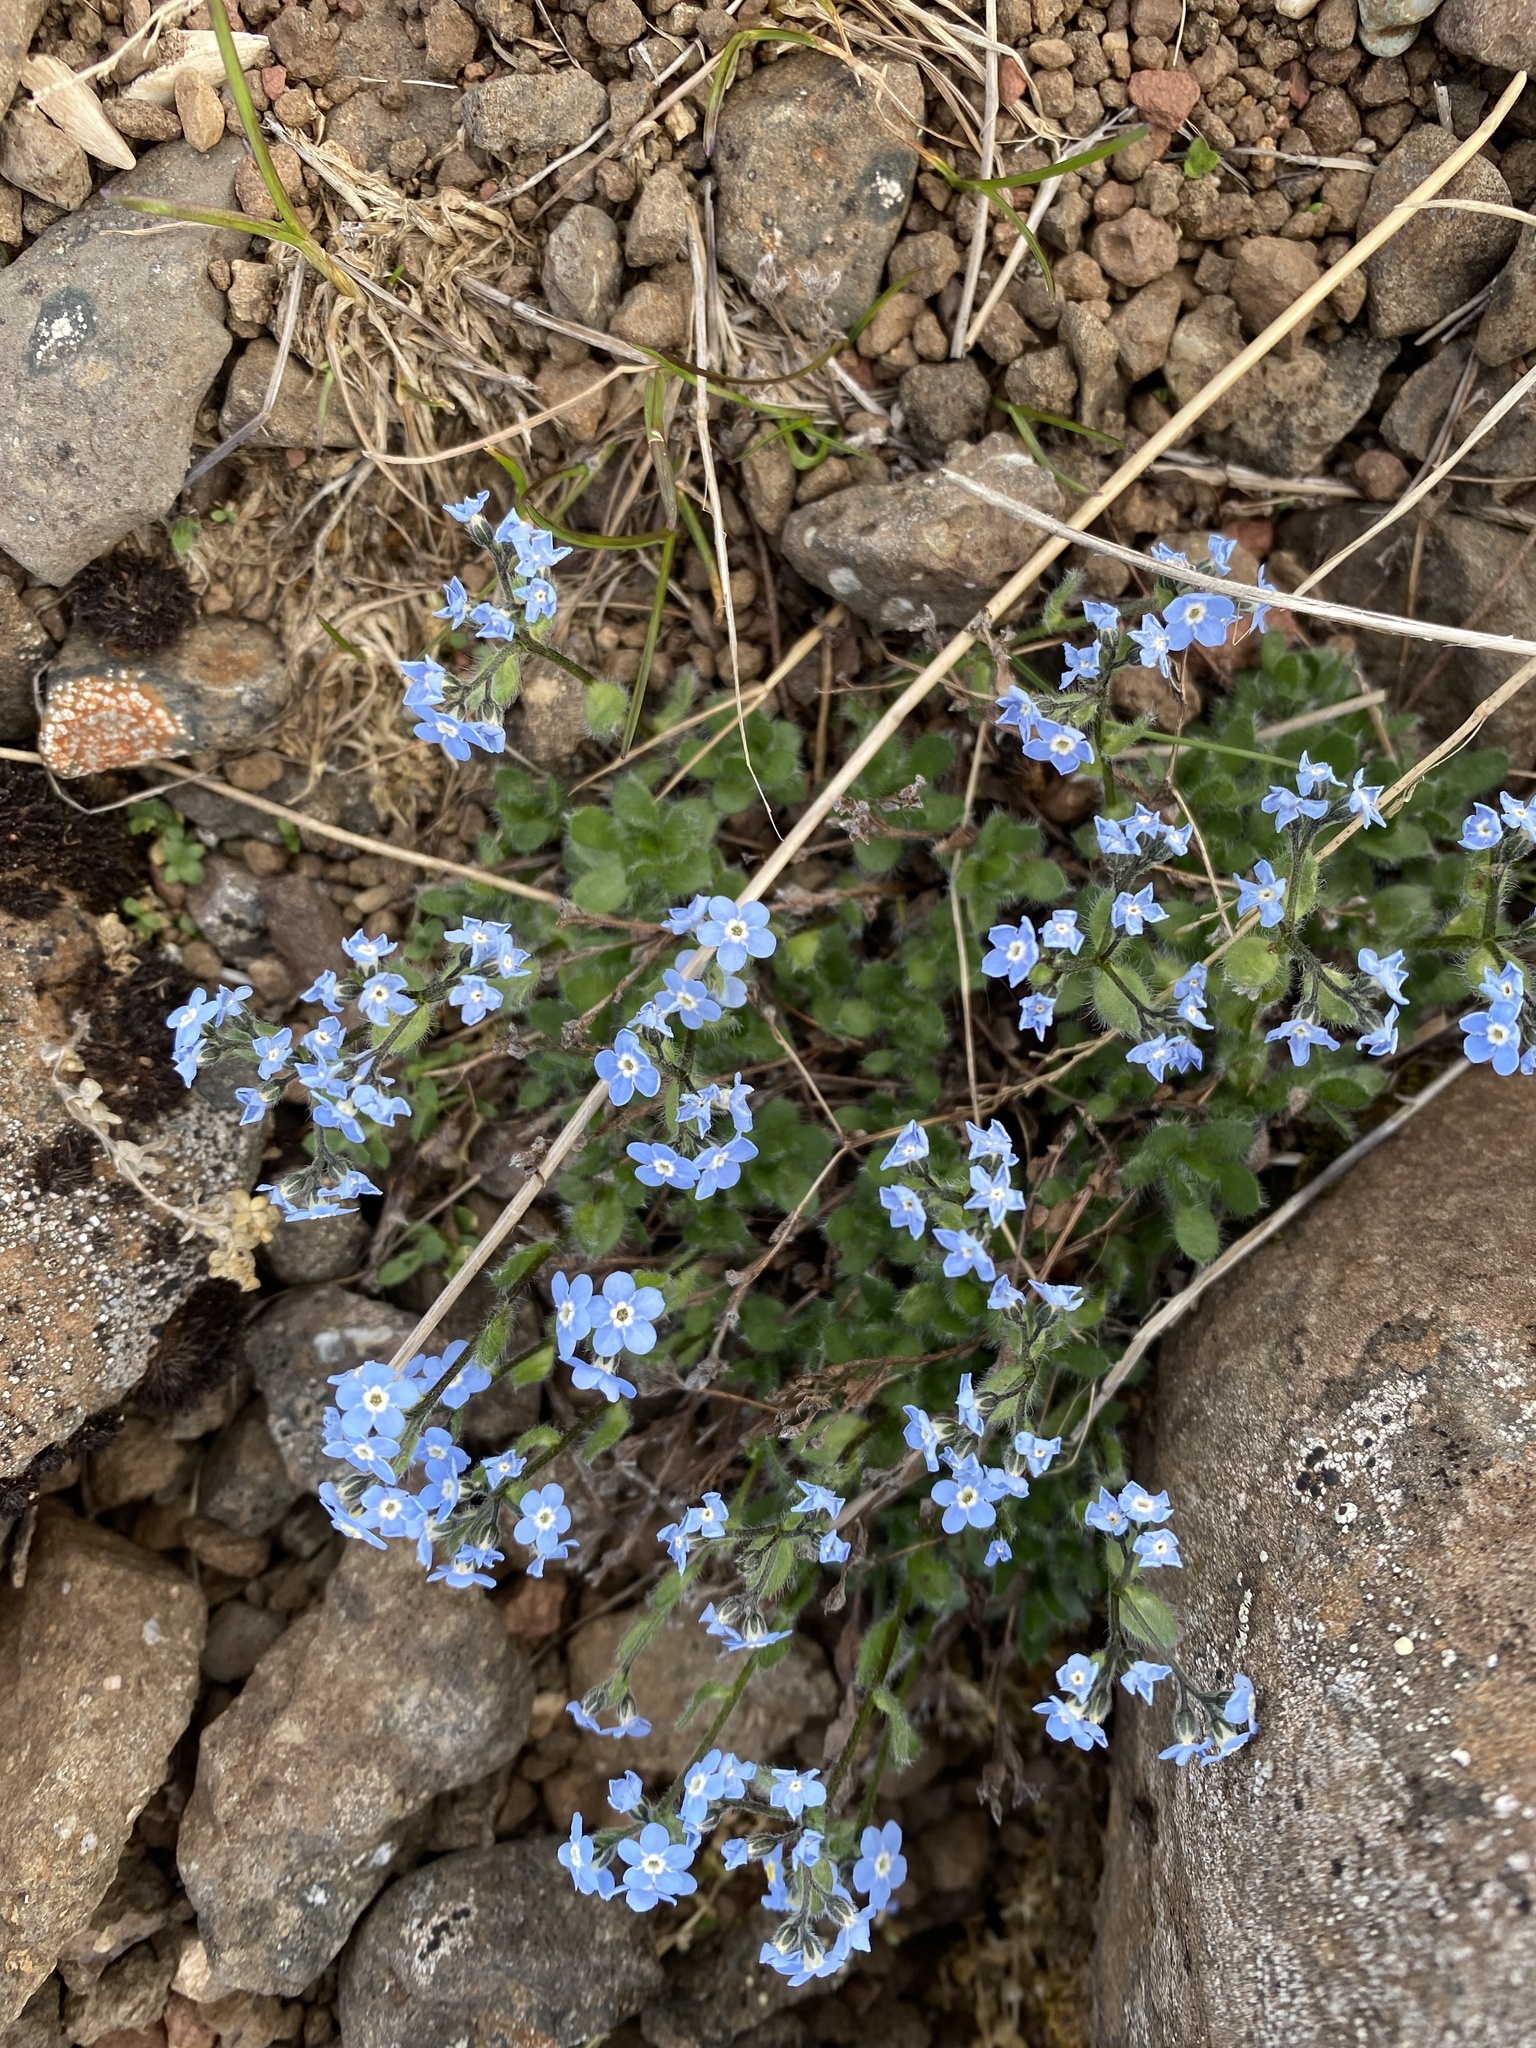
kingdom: Plantae
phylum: Tracheophyta
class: Magnoliopsida
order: Boraginales
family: Boraginaceae
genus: Eritrichium
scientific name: Eritrichium villosum
